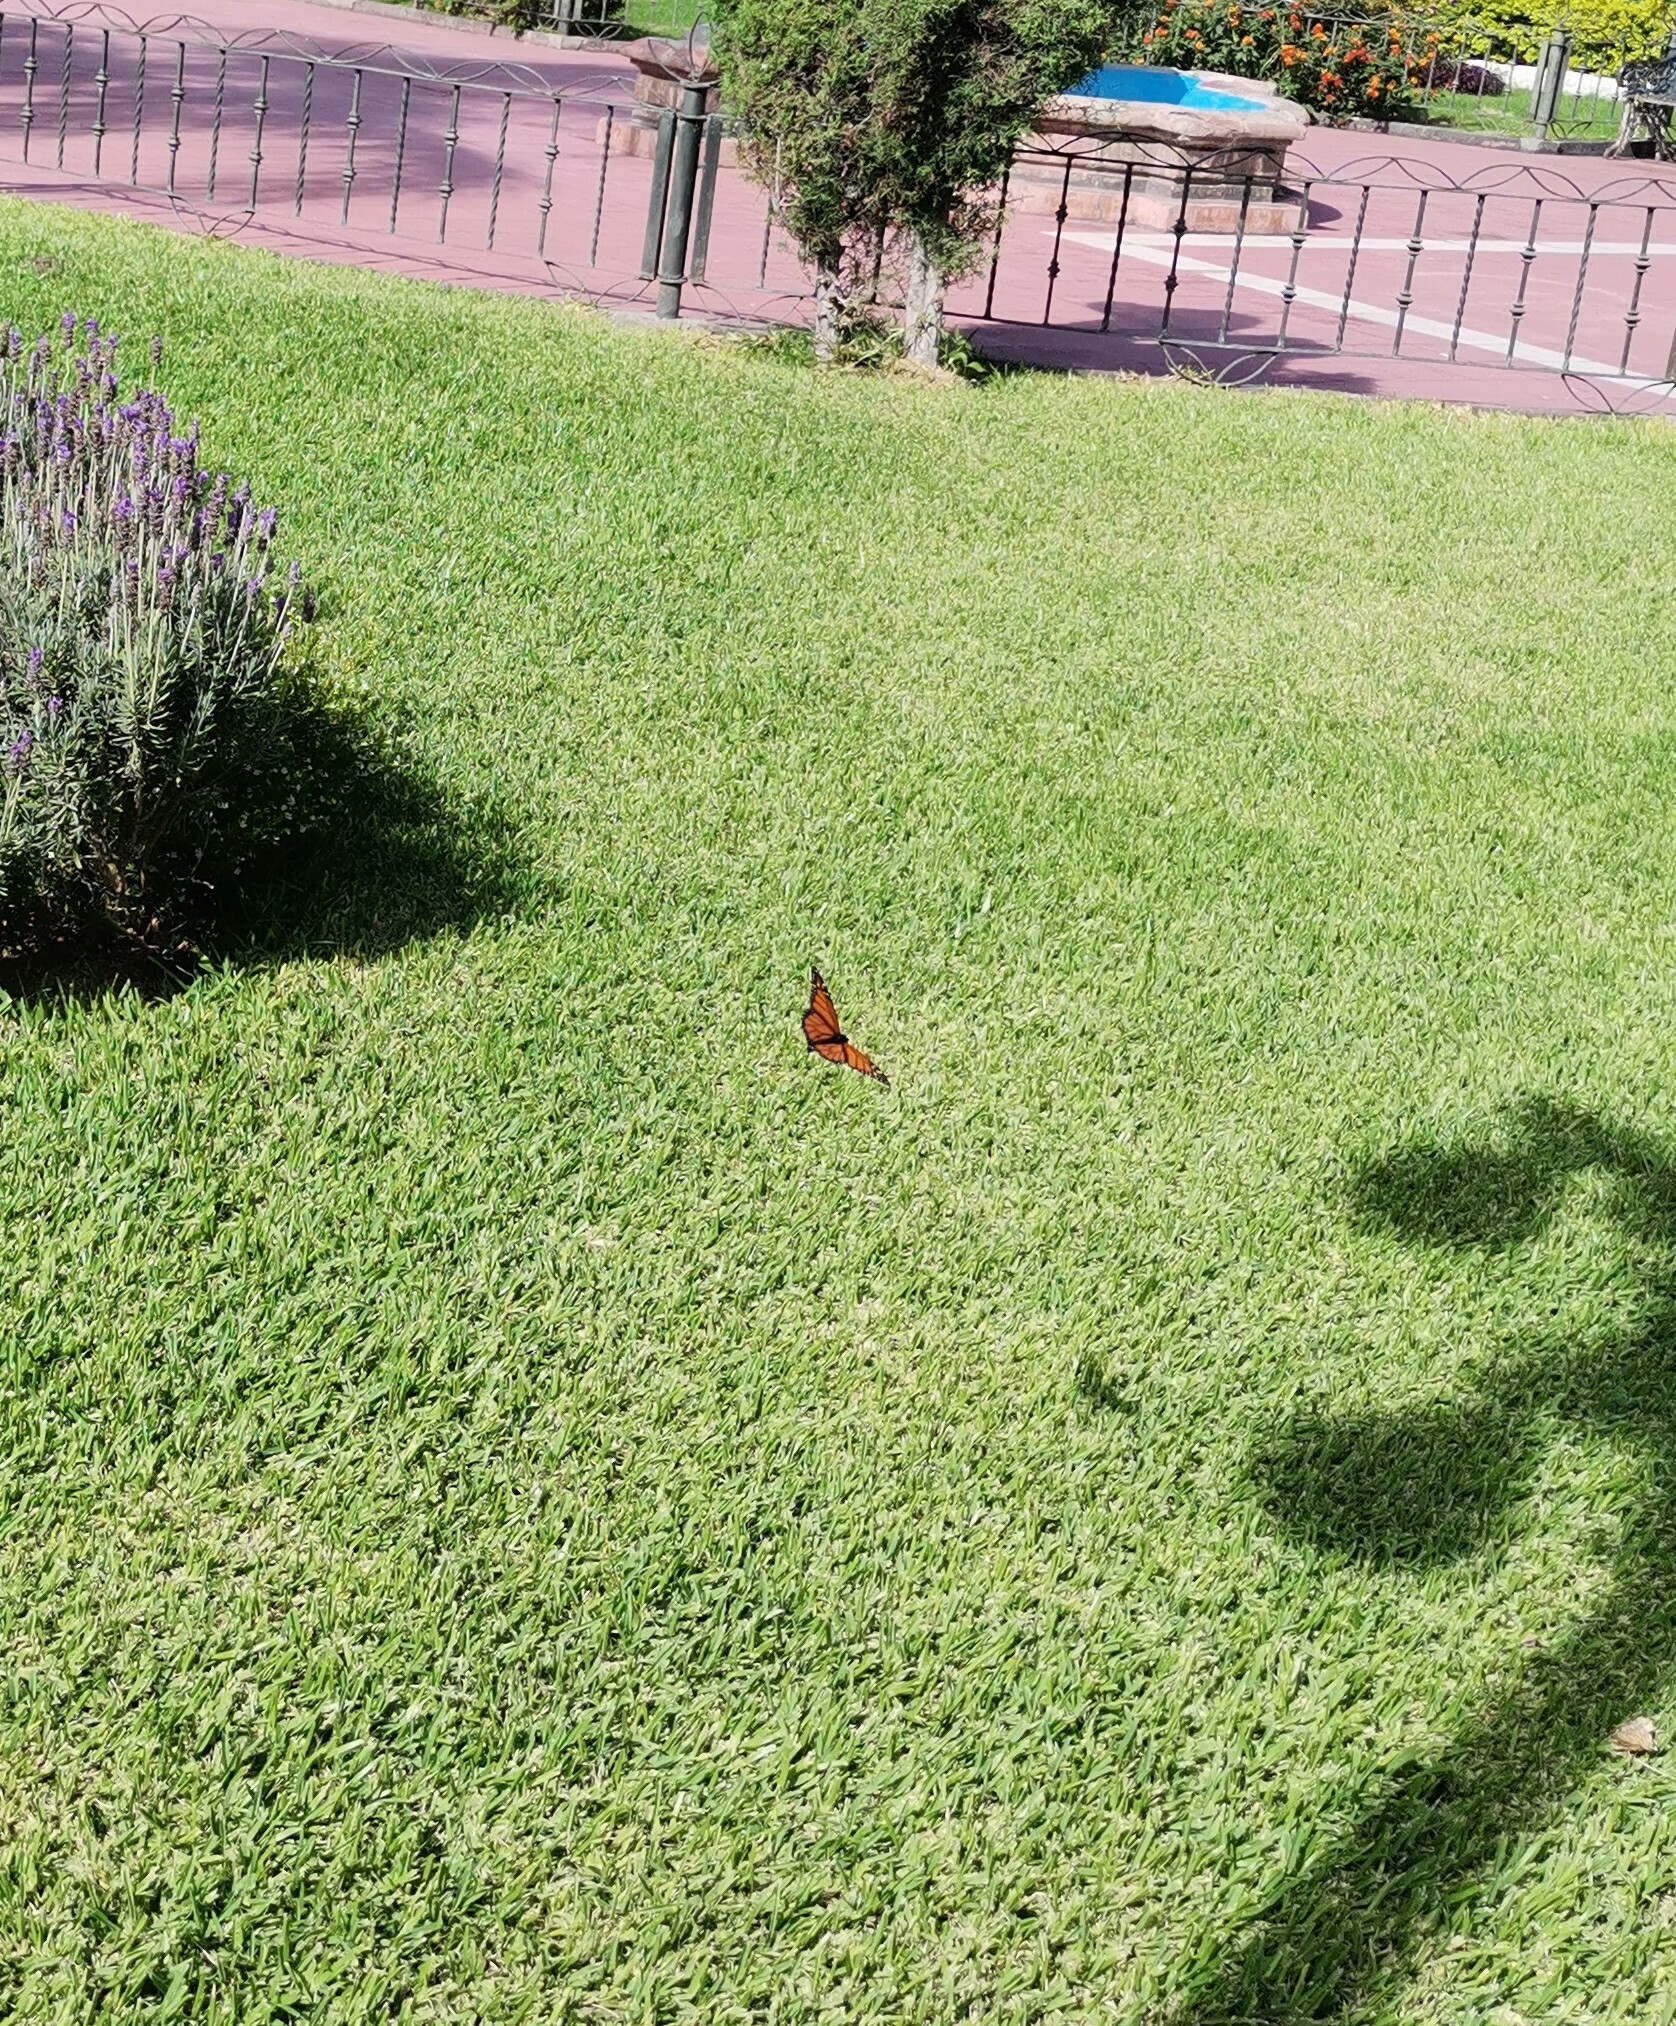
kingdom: Animalia
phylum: Arthropoda
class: Insecta
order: Lepidoptera
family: Nymphalidae
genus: Danaus
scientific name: Danaus plexippus
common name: Monarch
